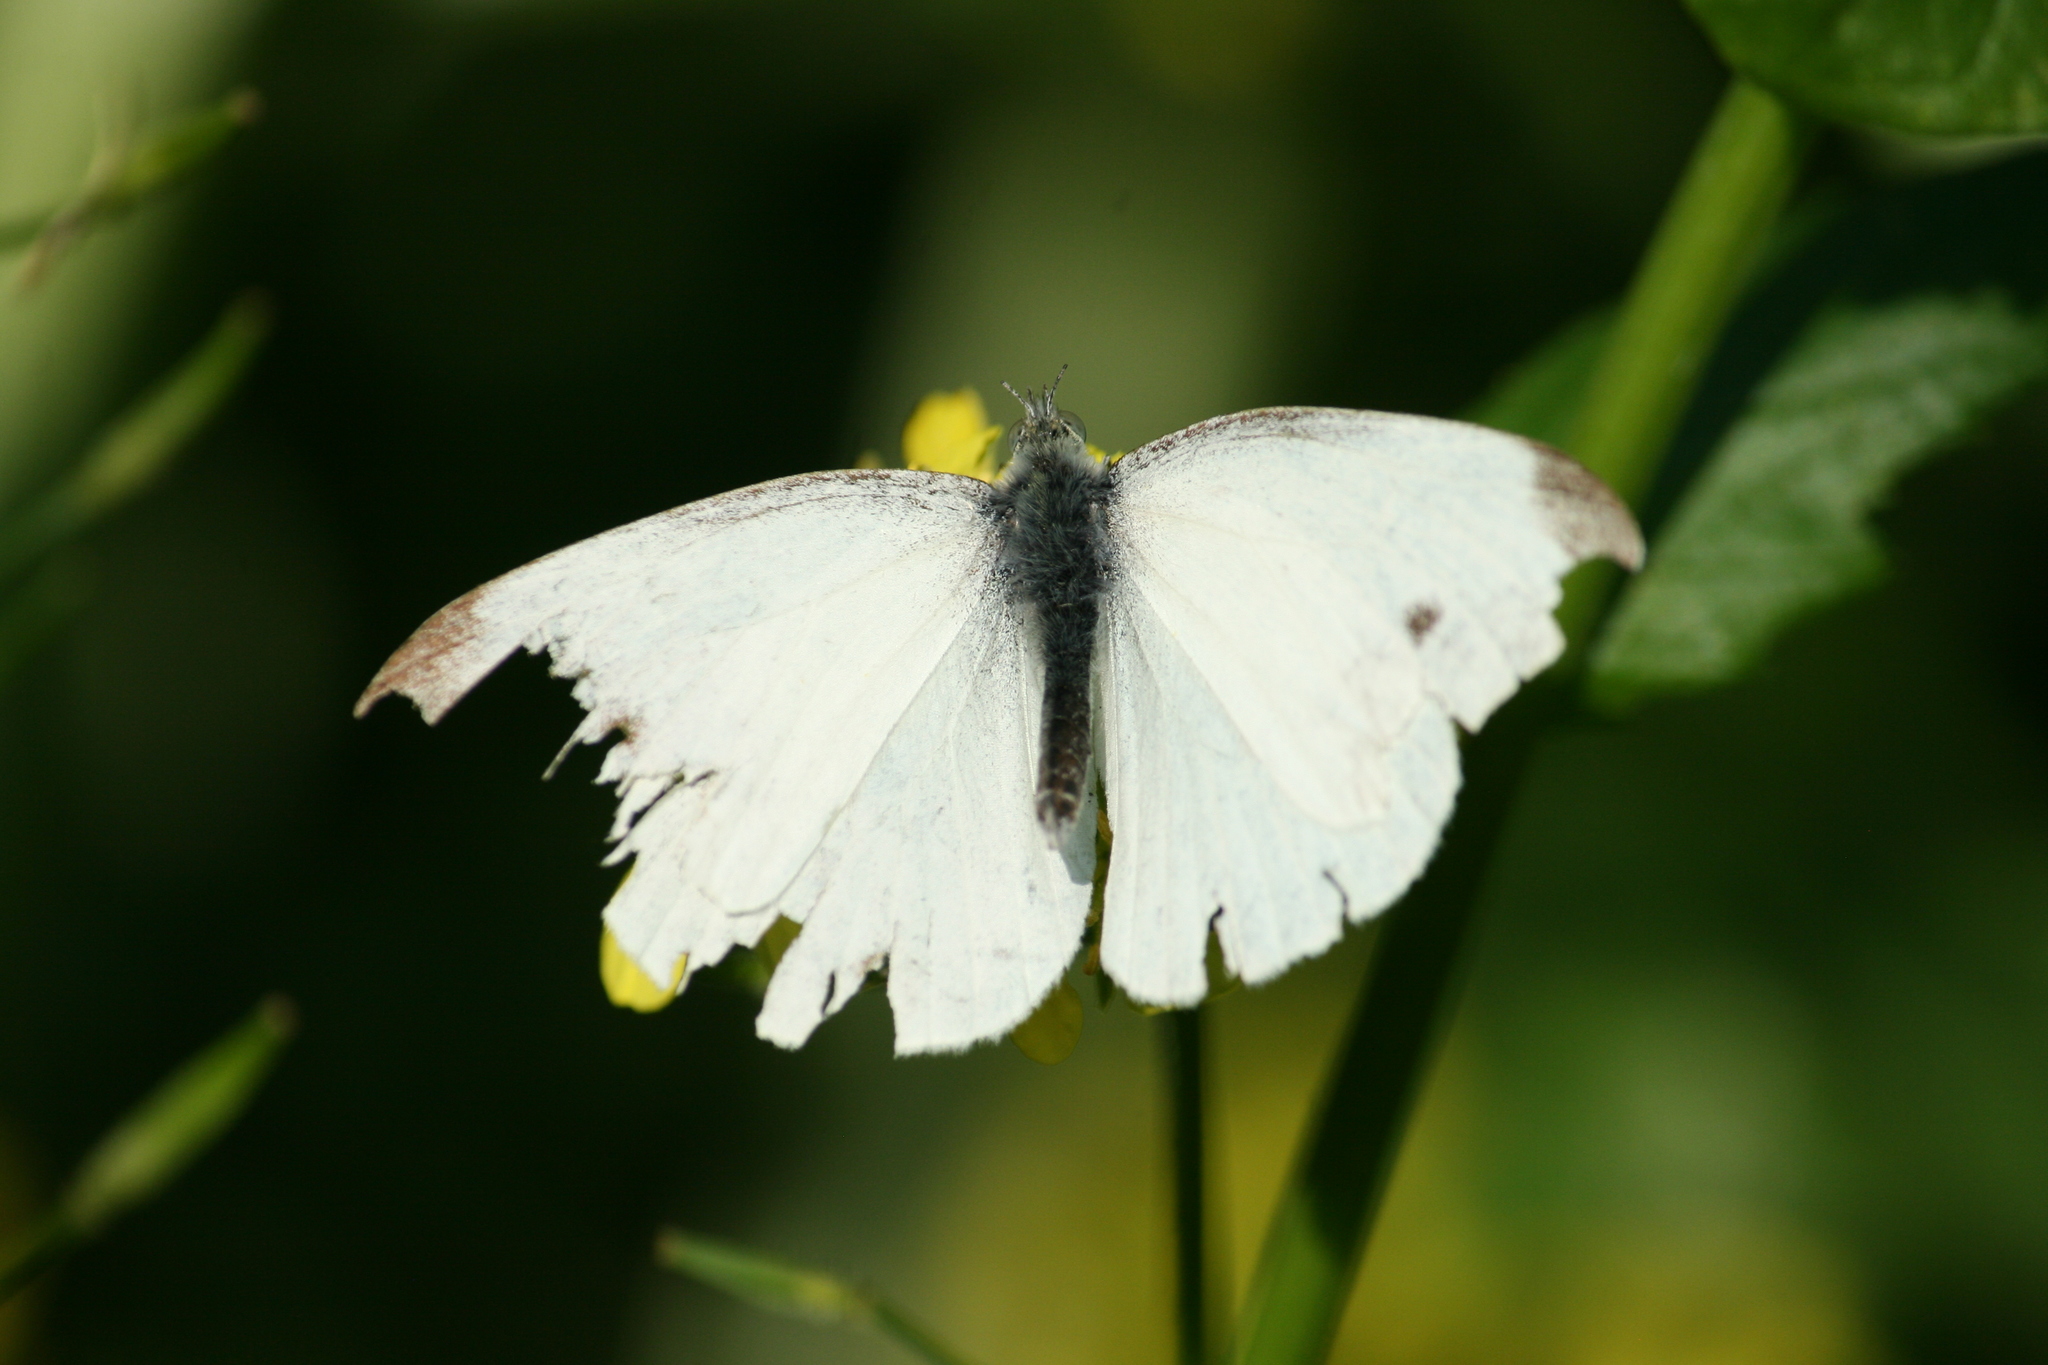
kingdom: Animalia
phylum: Arthropoda
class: Insecta
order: Lepidoptera
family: Pieridae
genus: Pieris
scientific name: Pieris rapae
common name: Small white
